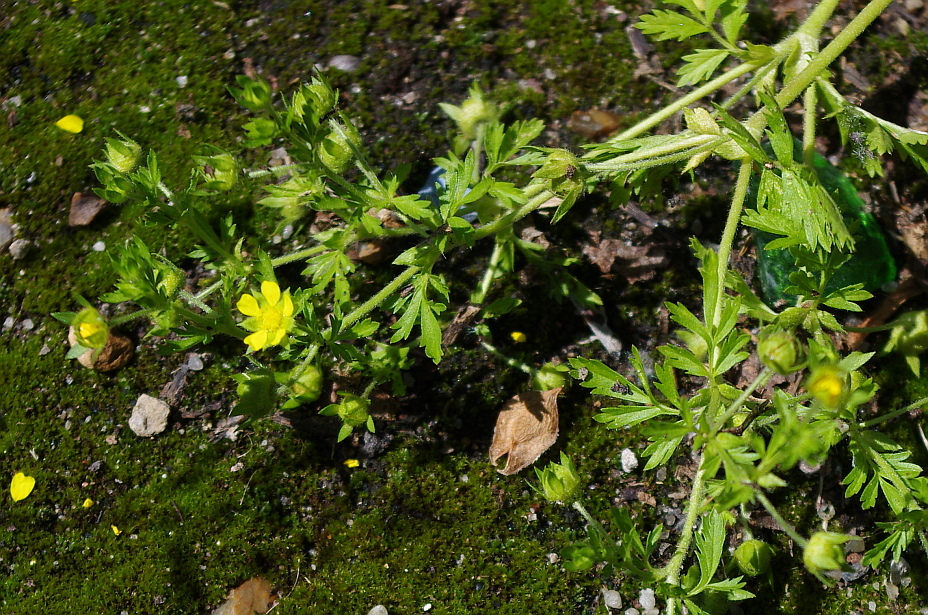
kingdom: Plantae
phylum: Tracheophyta
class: Magnoliopsida
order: Rosales
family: Rosaceae
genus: Potentilla
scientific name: Potentilla supina
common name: Prostrate cinquefoil
